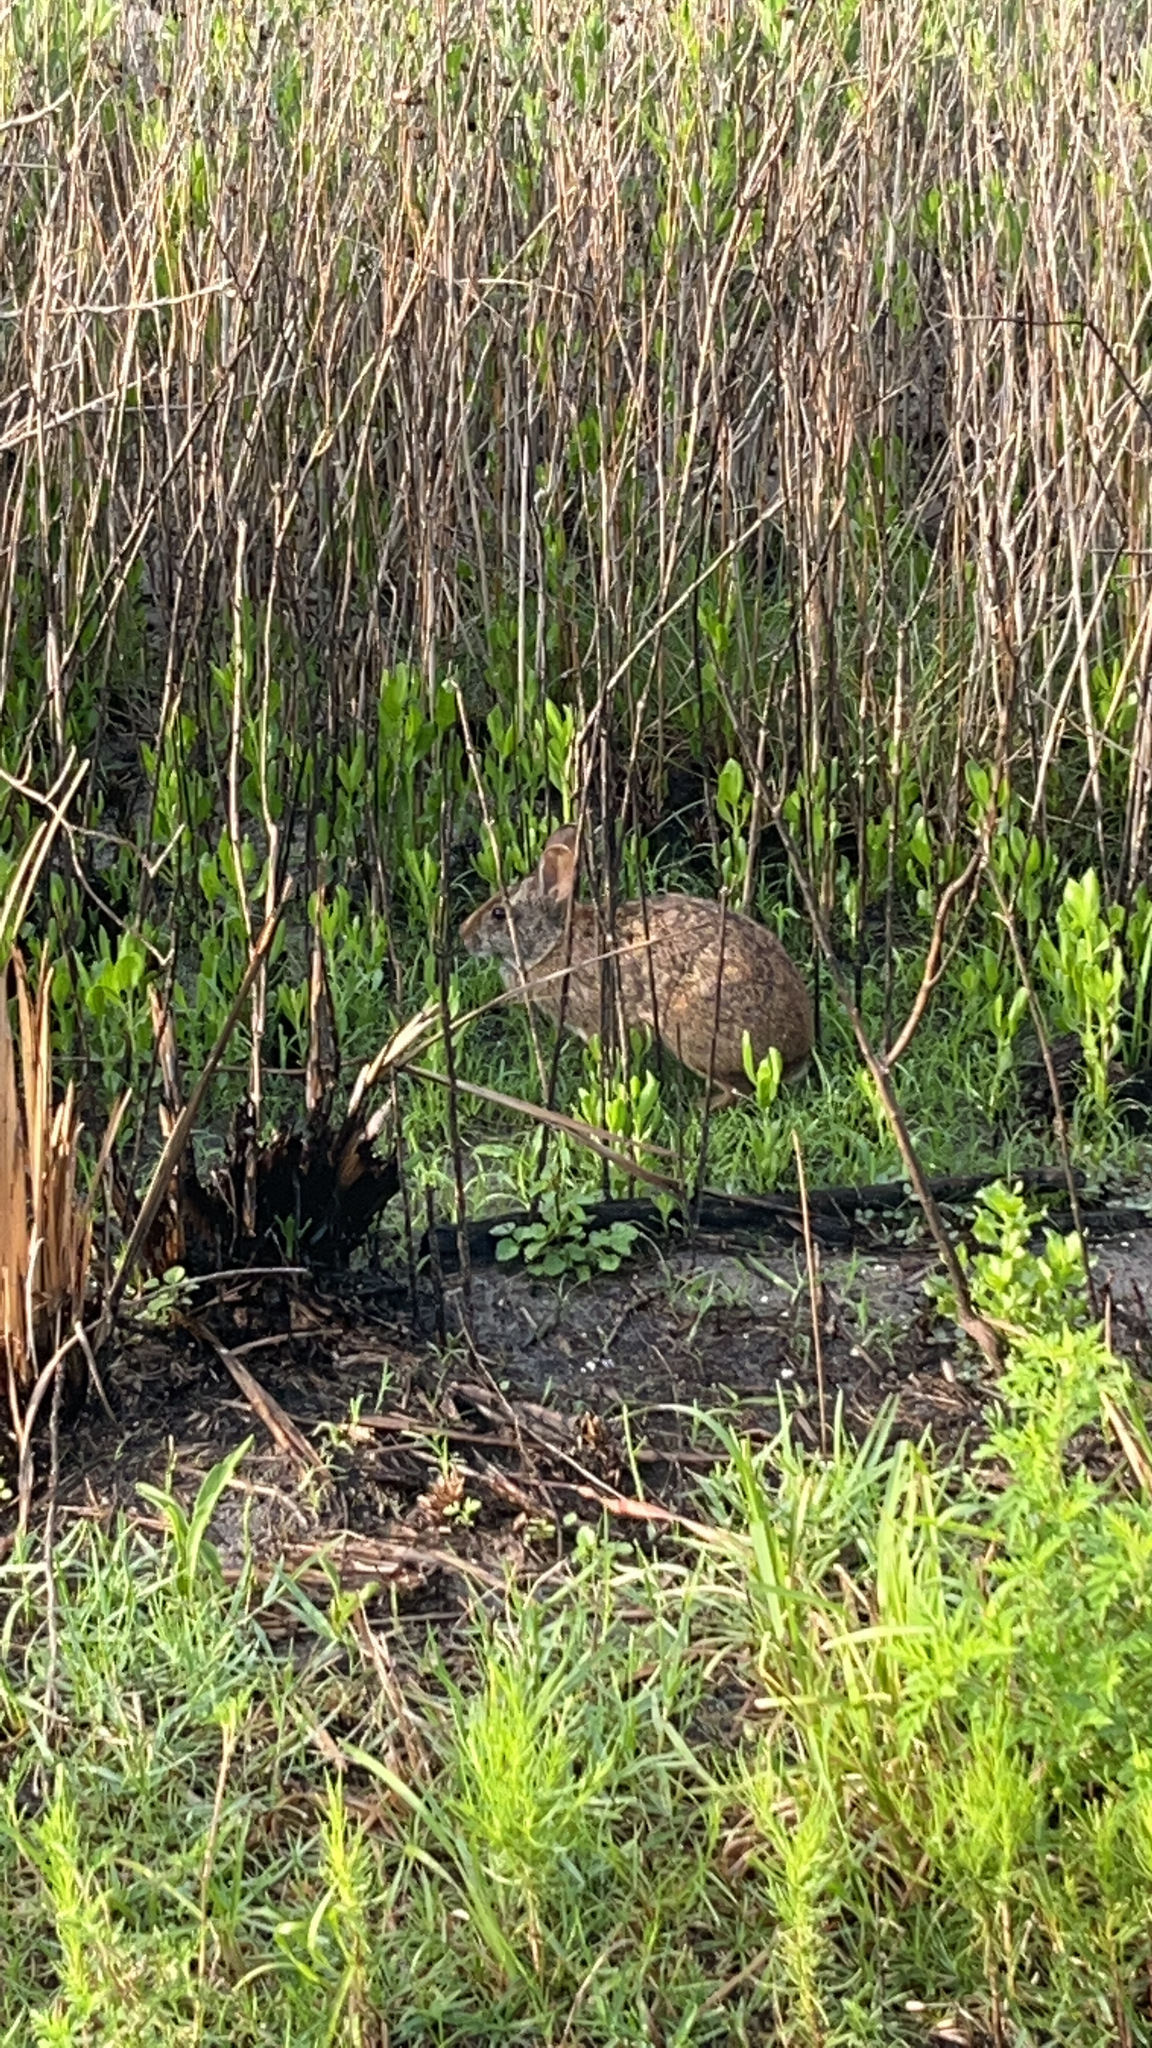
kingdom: Animalia
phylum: Chordata
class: Mammalia
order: Lagomorpha
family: Leporidae
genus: Sylvilagus
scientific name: Sylvilagus palustris
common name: Marsh rabbit
